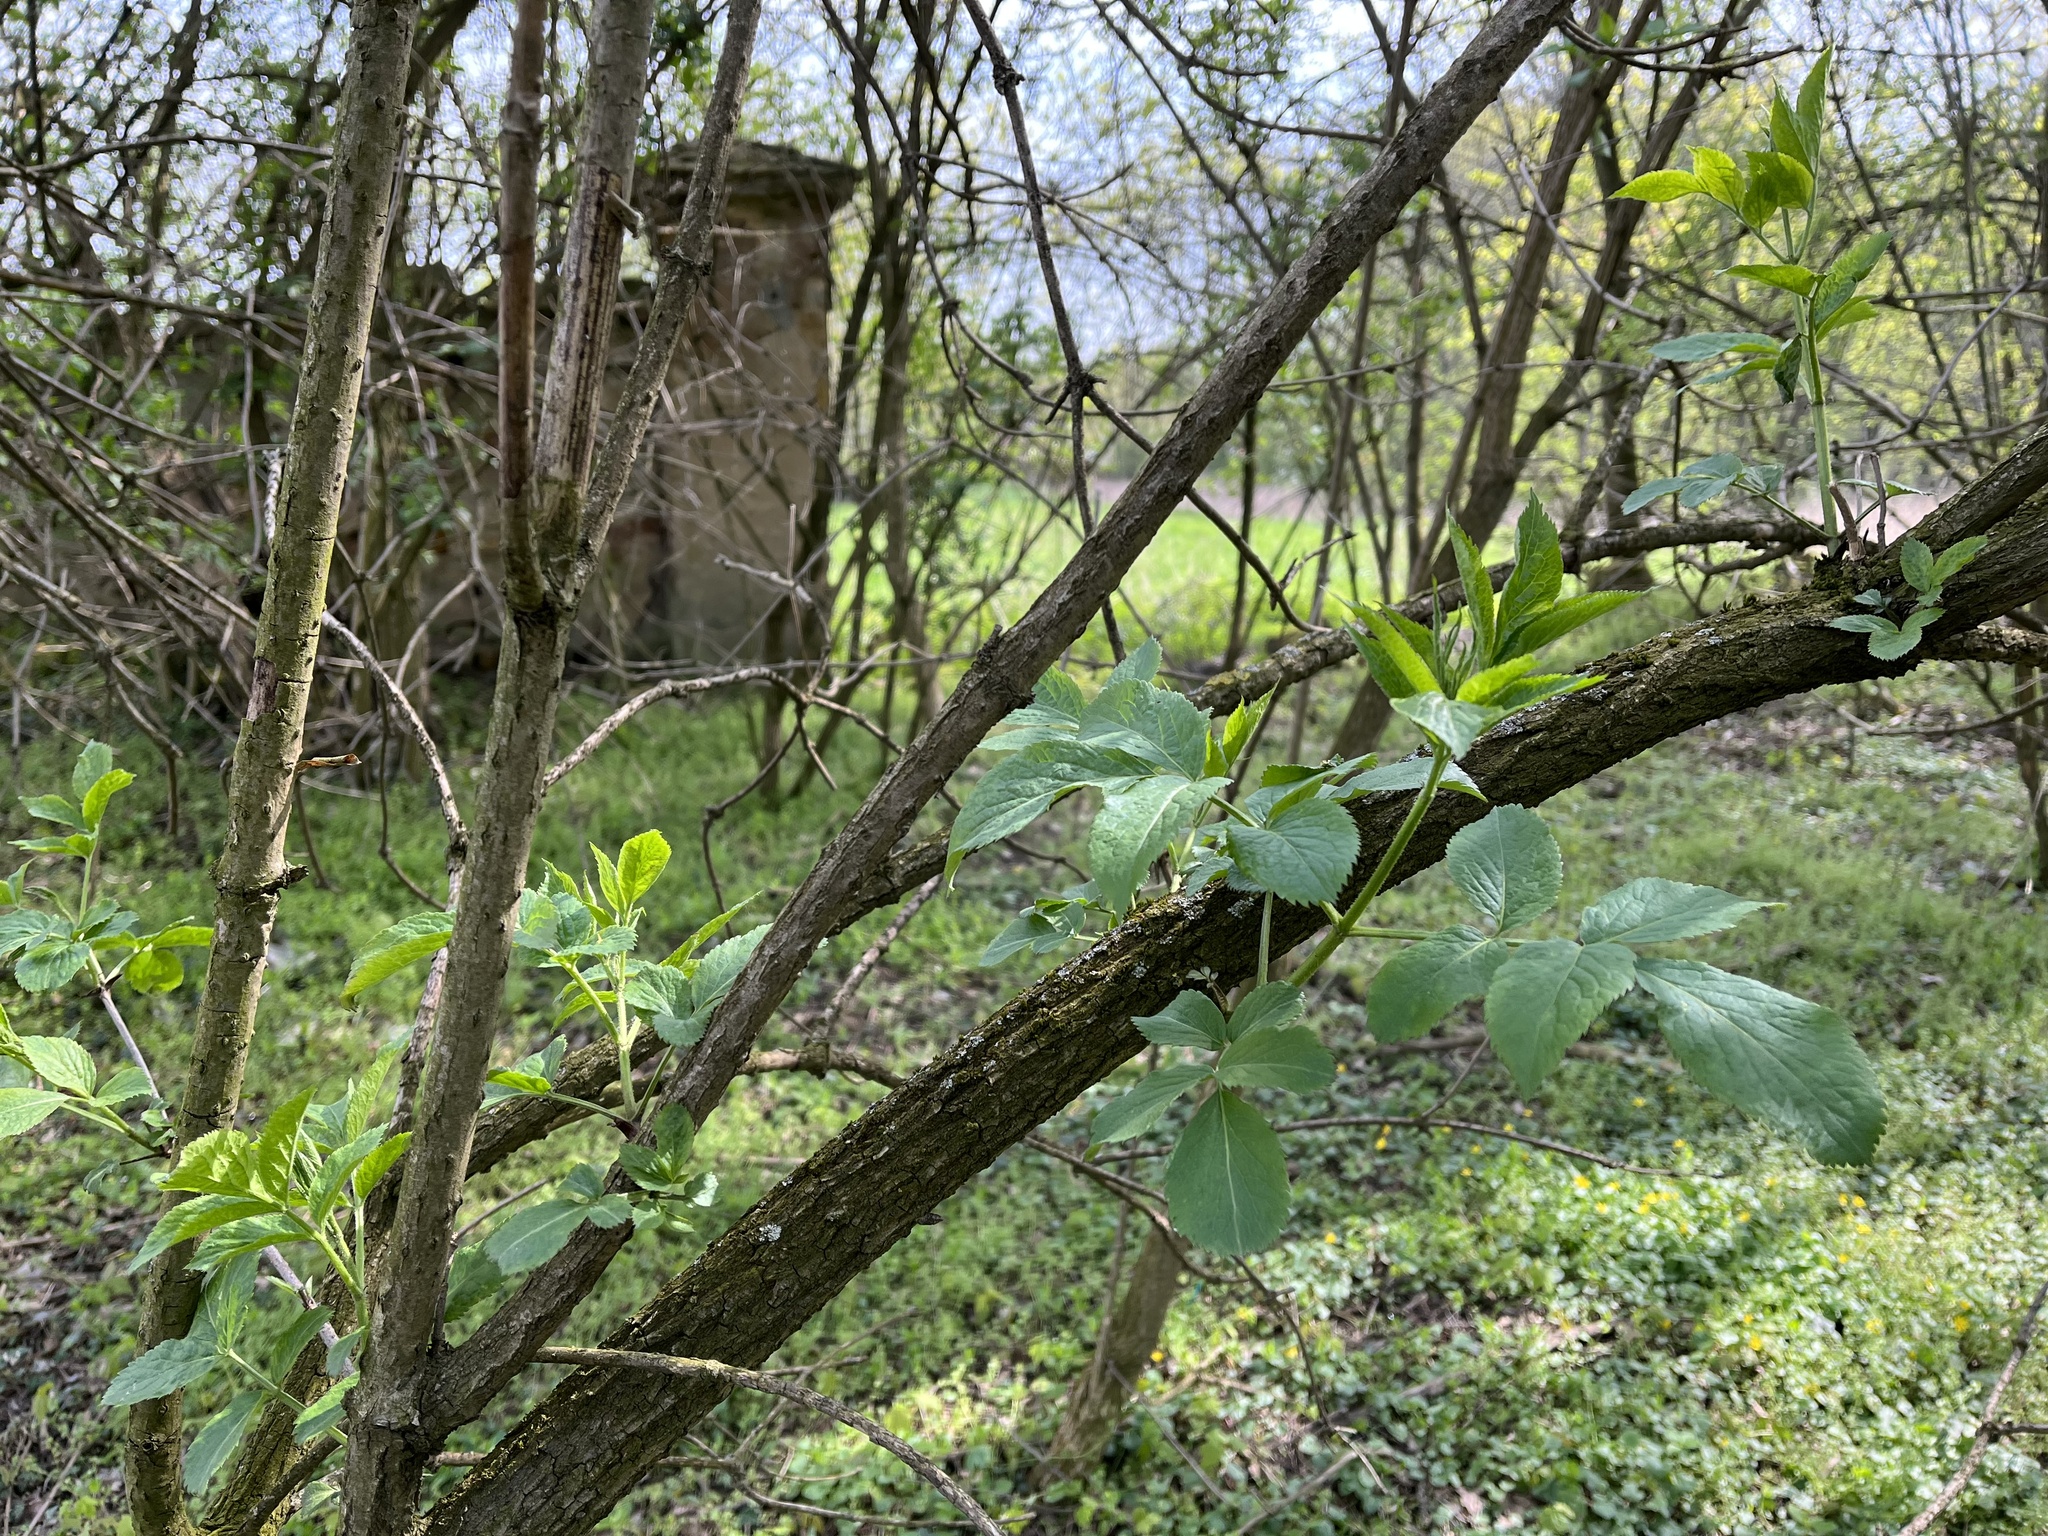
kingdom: Plantae
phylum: Tracheophyta
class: Magnoliopsida
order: Dipsacales
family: Viburnaceae
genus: Sambucus
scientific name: Sambucus nigra
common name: Elder
